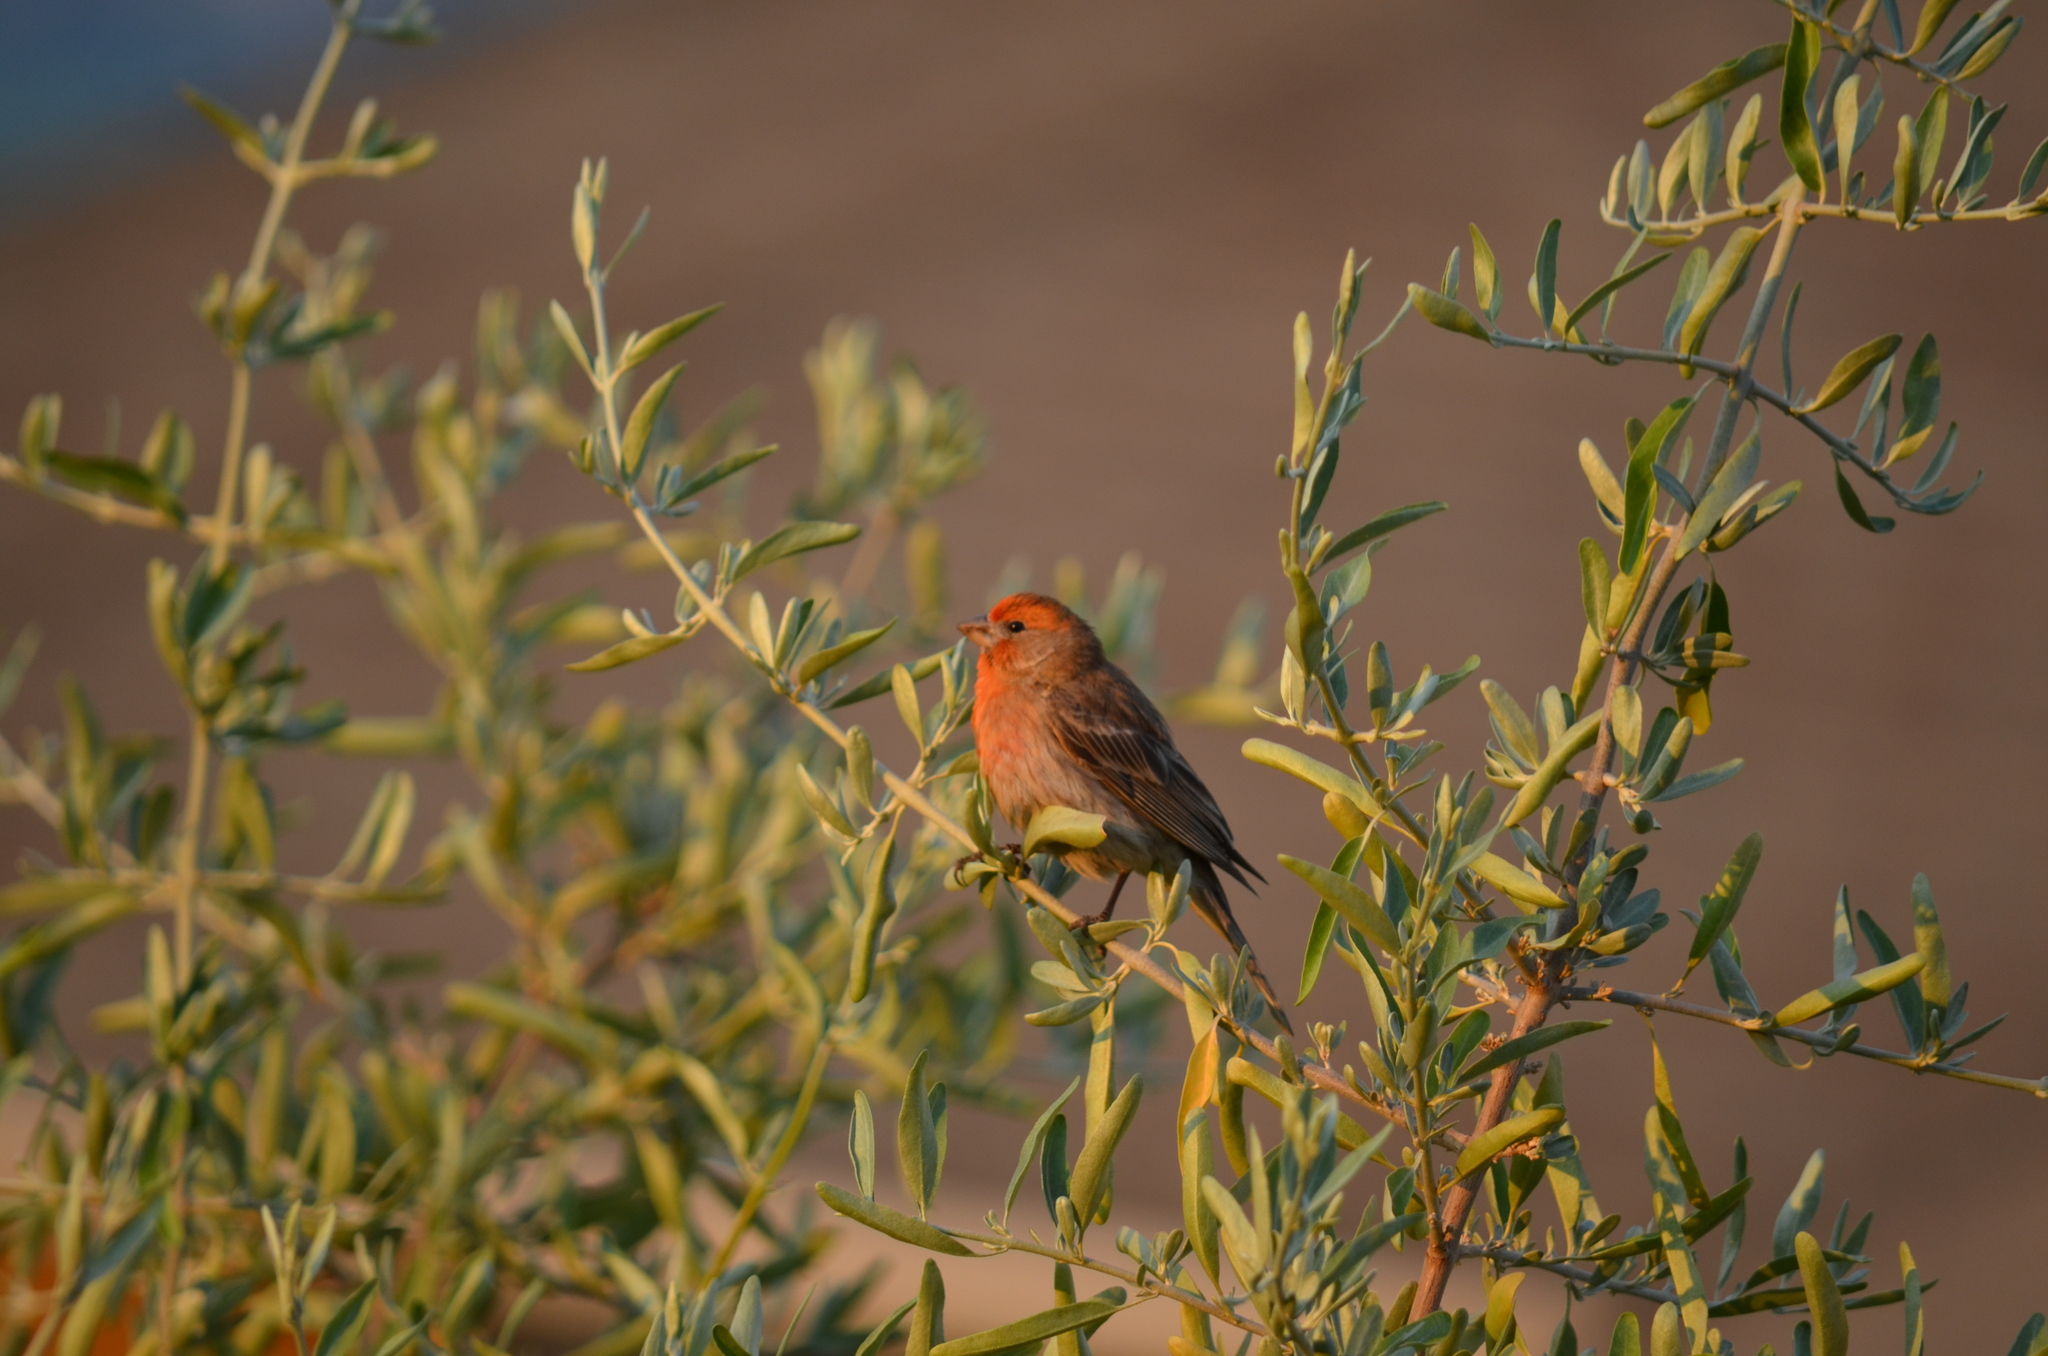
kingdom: Animalia
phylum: Chordata
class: Aves
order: Passeriformes
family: Fringillidae
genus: Haemorhous
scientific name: Haemorhous mexicanus
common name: House finch
